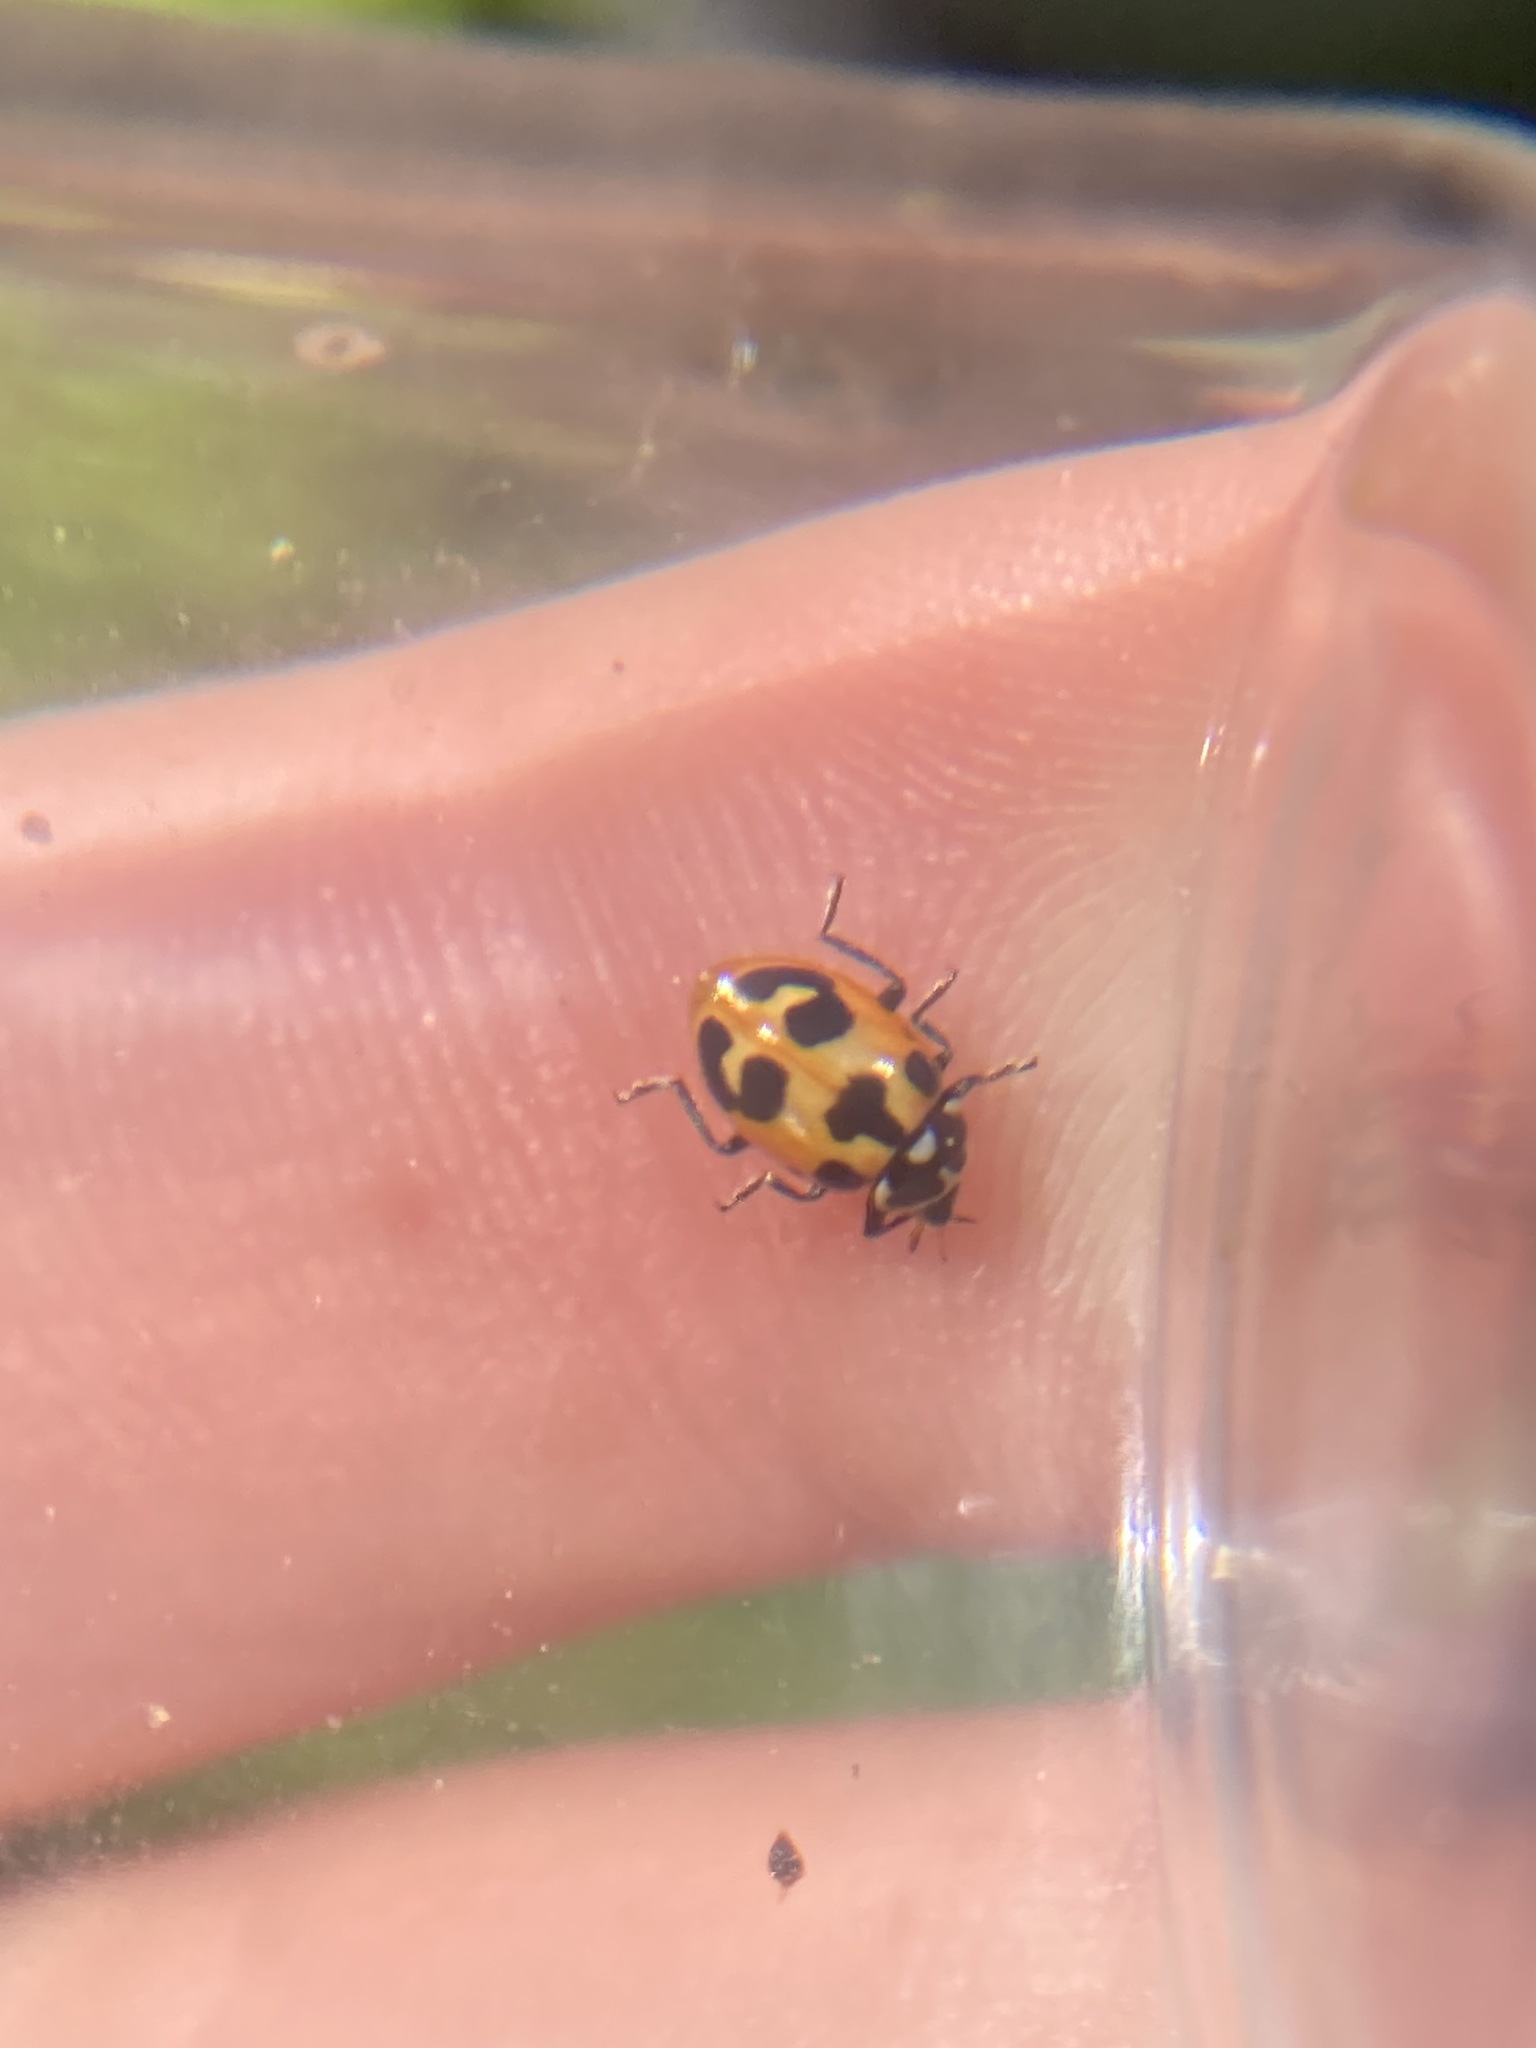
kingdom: Animalia
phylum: Arthropoda
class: Insecta
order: Coleoptera
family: Coccinellidae
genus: Hippodamia
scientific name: Hippodamia parenthesis
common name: Parenthesis lady beetle
